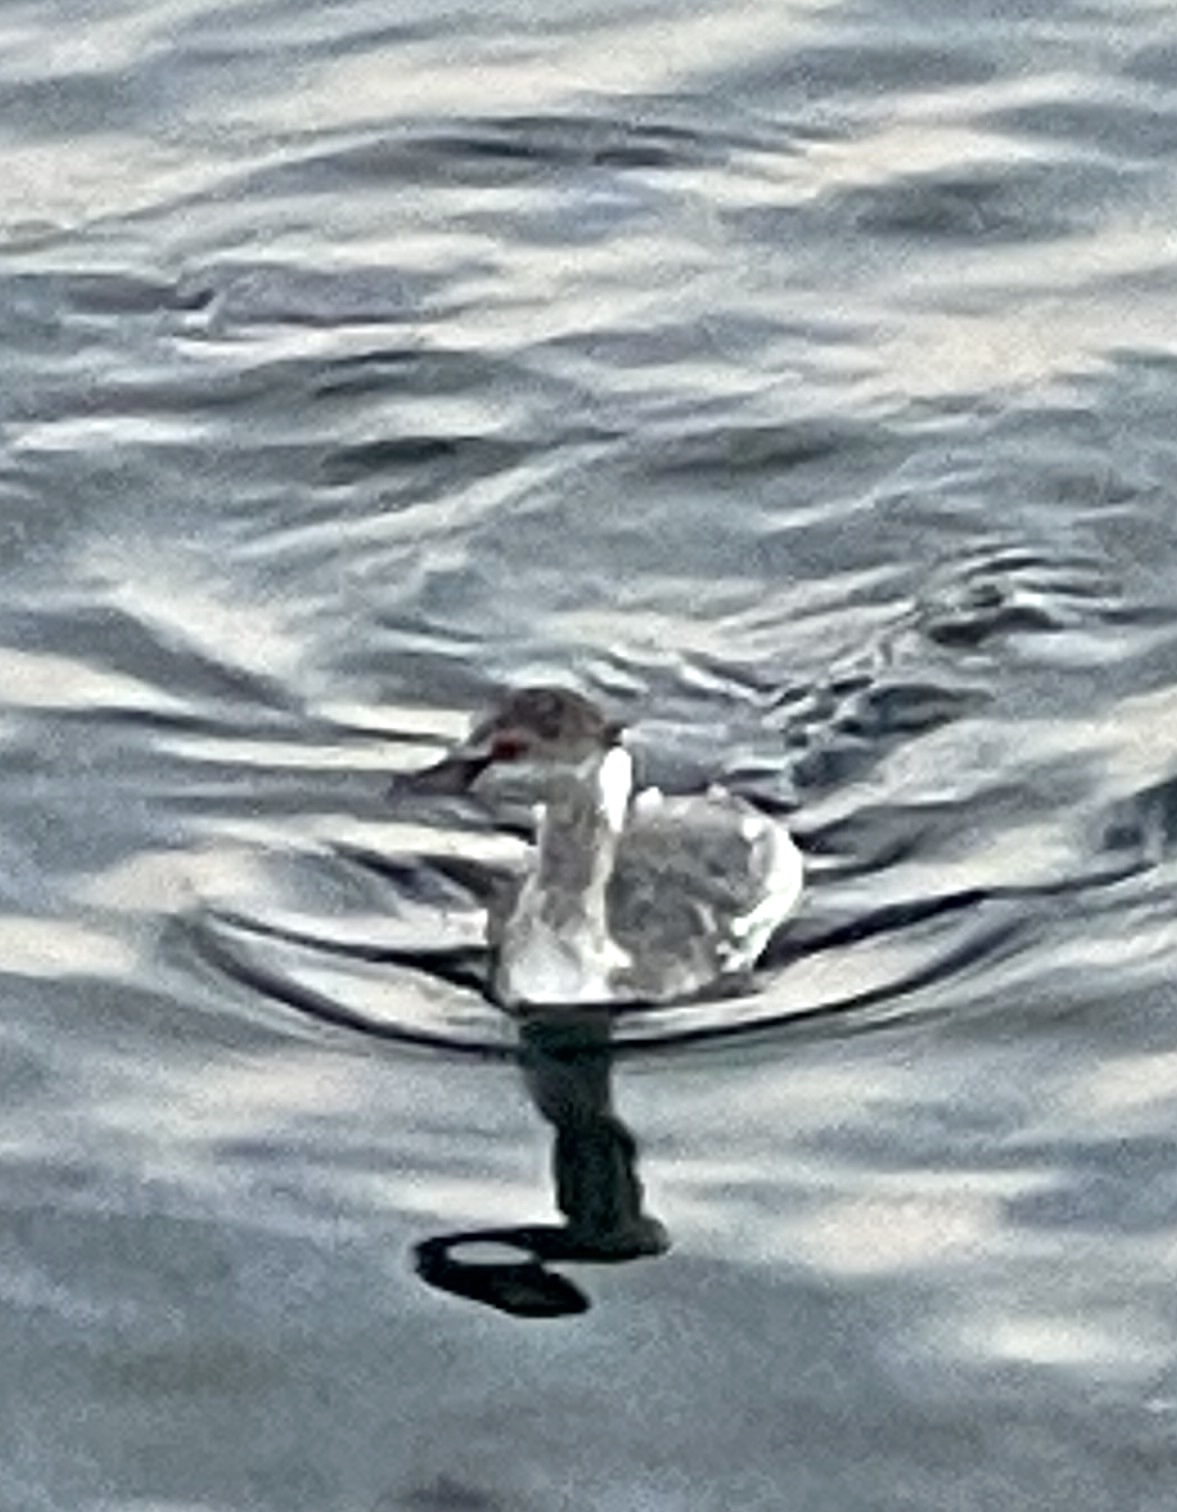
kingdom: Animalia
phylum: Chordata
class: Aves
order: Podicipediformes
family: Podicipedidae
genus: Podiceps
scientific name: Podiceps nigricollis
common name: Black-necked grebe
